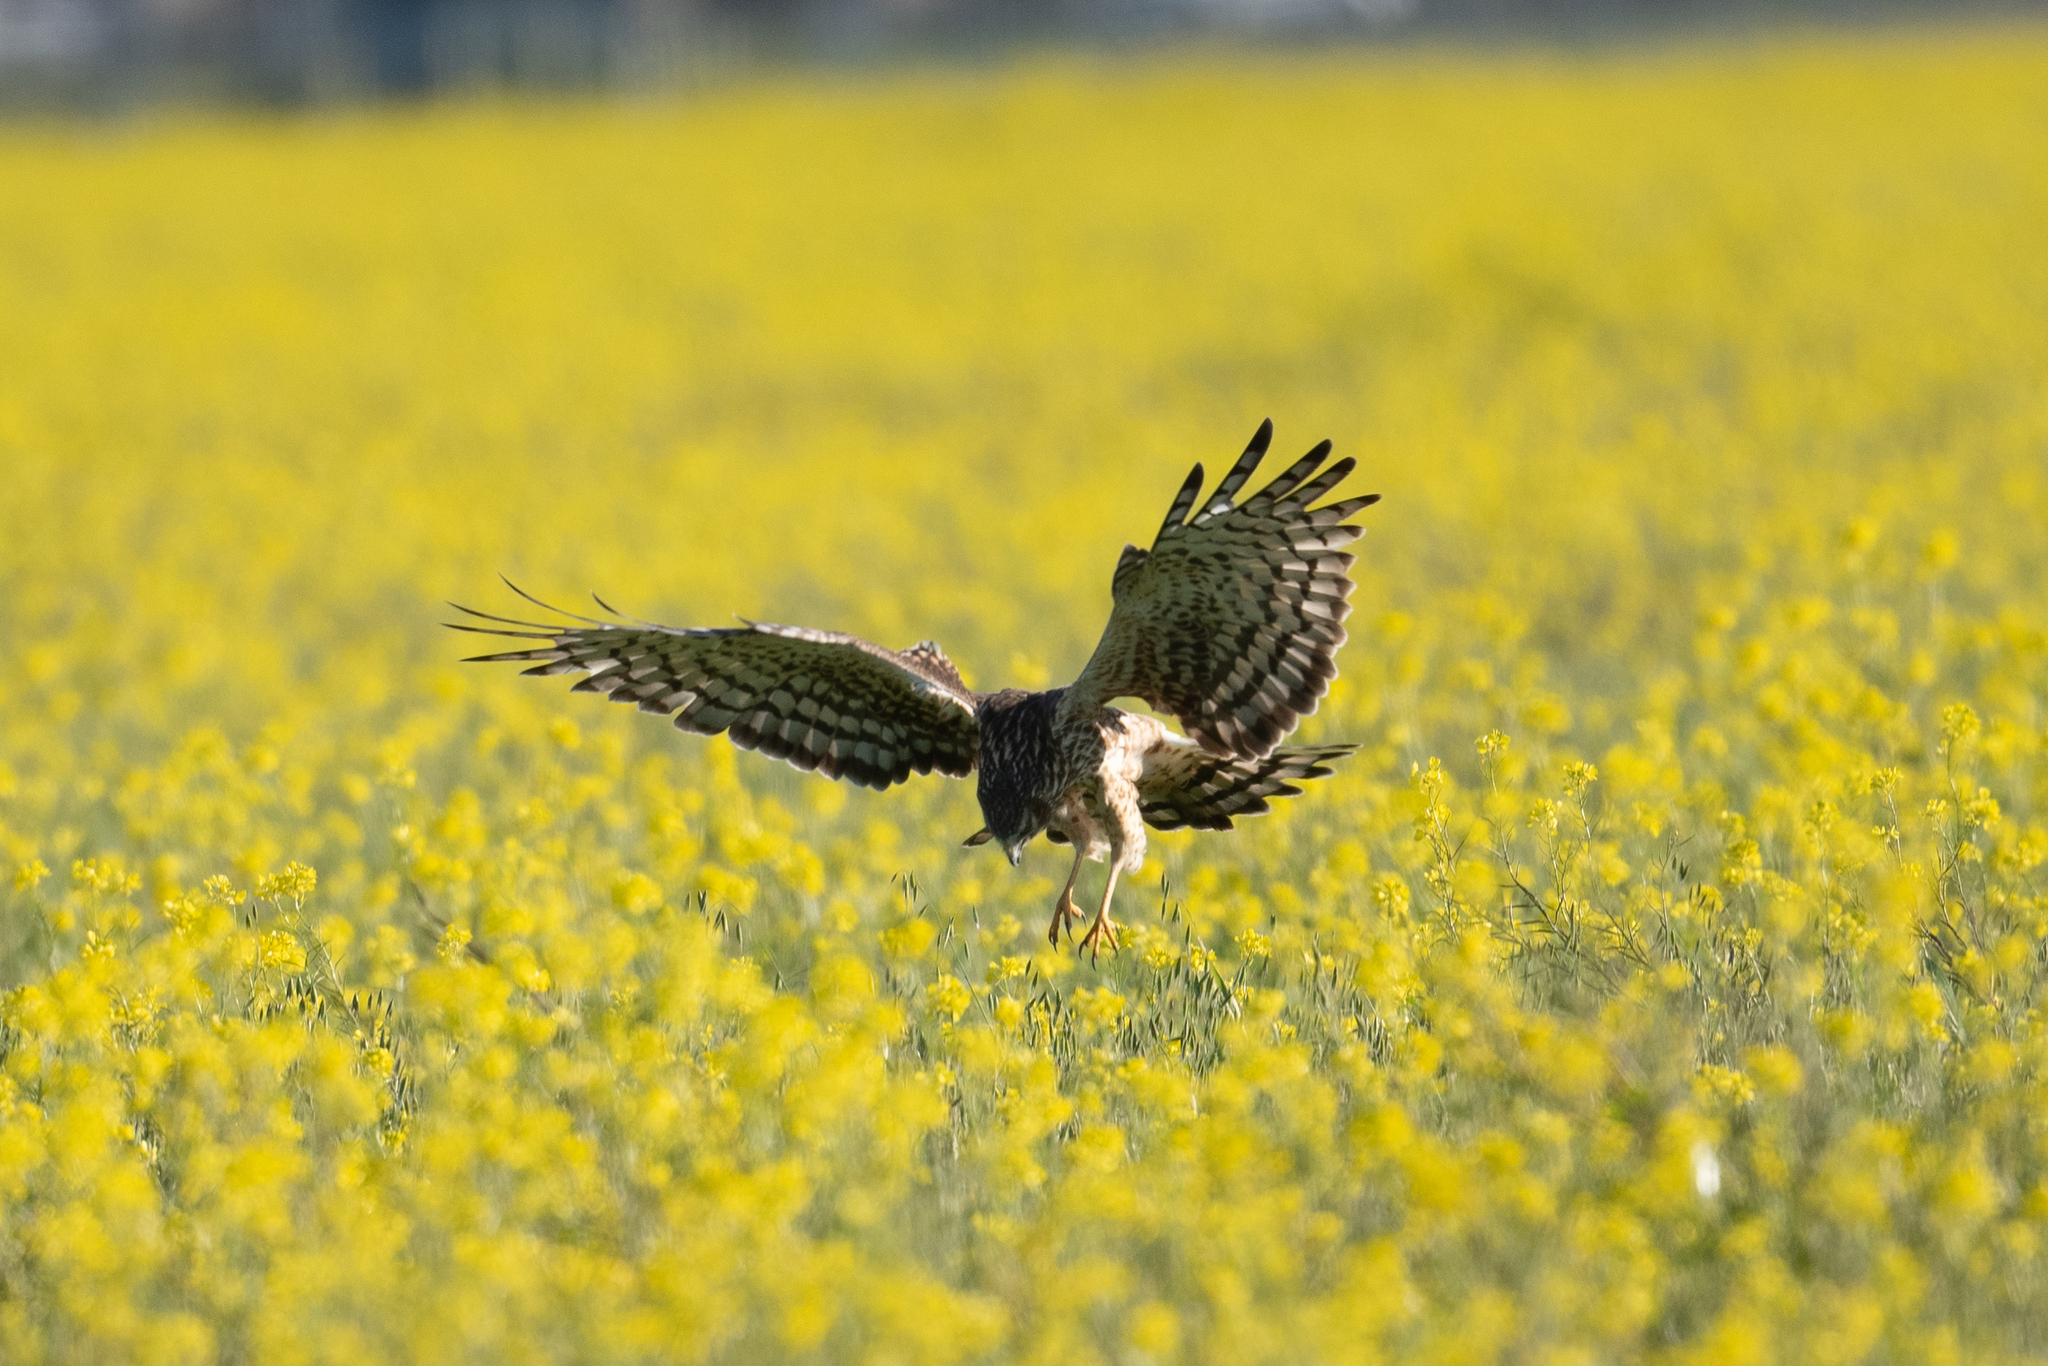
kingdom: Animalia
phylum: Chordata
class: Aves
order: Accipitriformes
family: Accipitridae
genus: Circus
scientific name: Circus cyaneus
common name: Hen harrier
